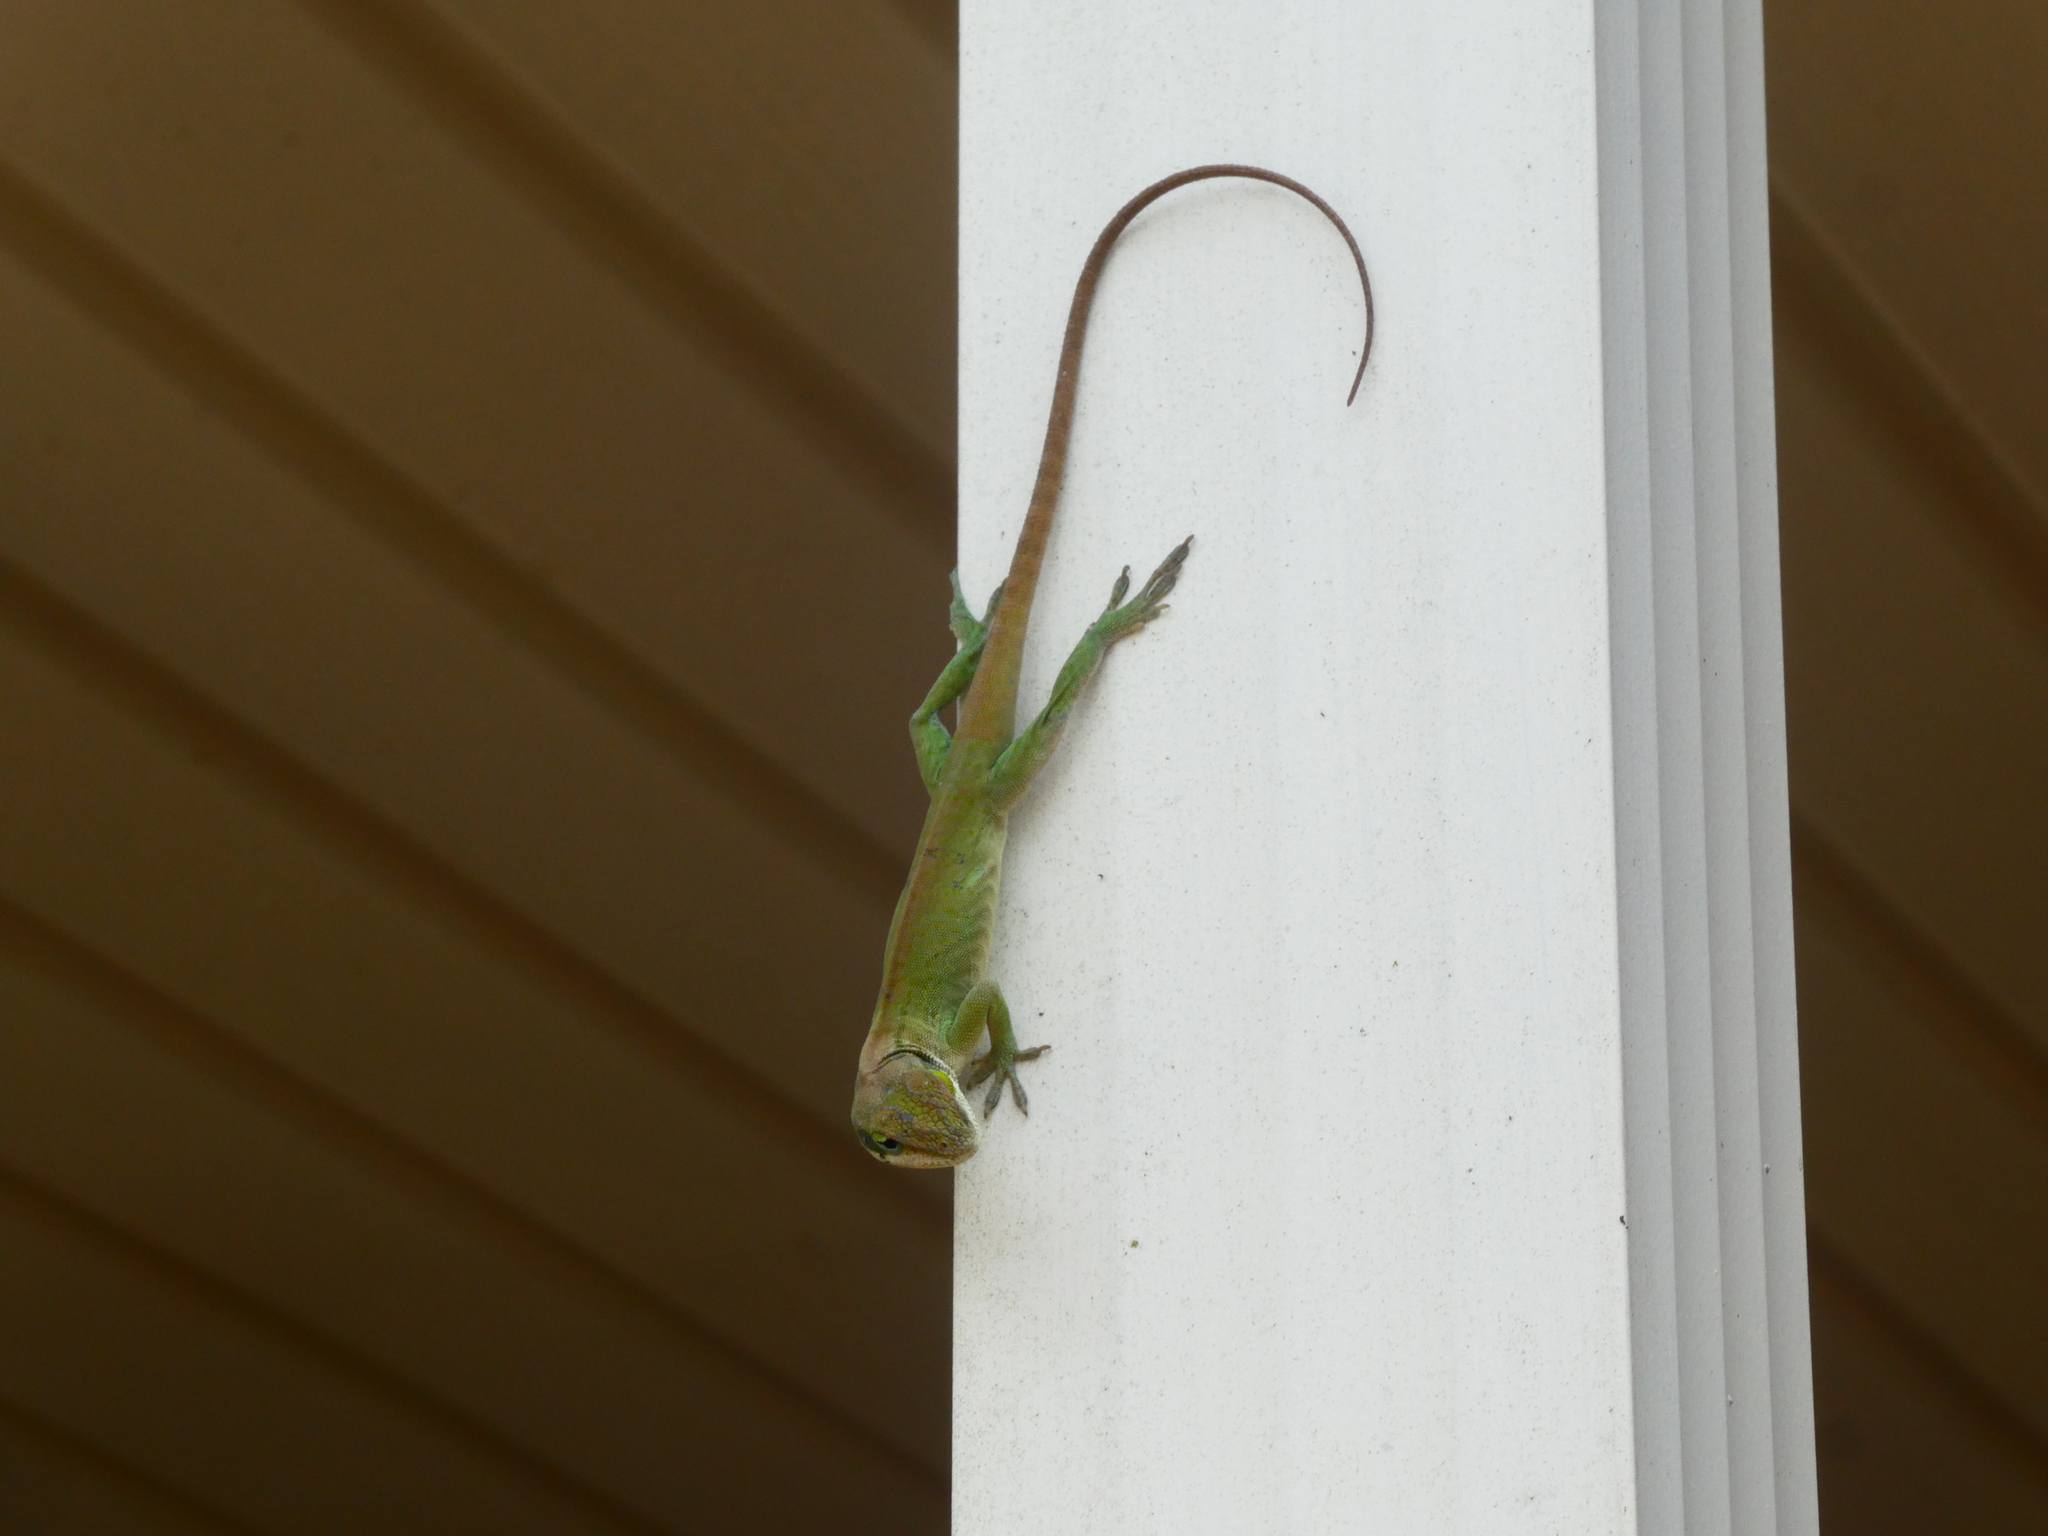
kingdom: Animalia
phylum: Chordata
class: Squamata
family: Dactyloidae
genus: Anolis
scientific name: Anolis carolinensis
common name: Green anole
